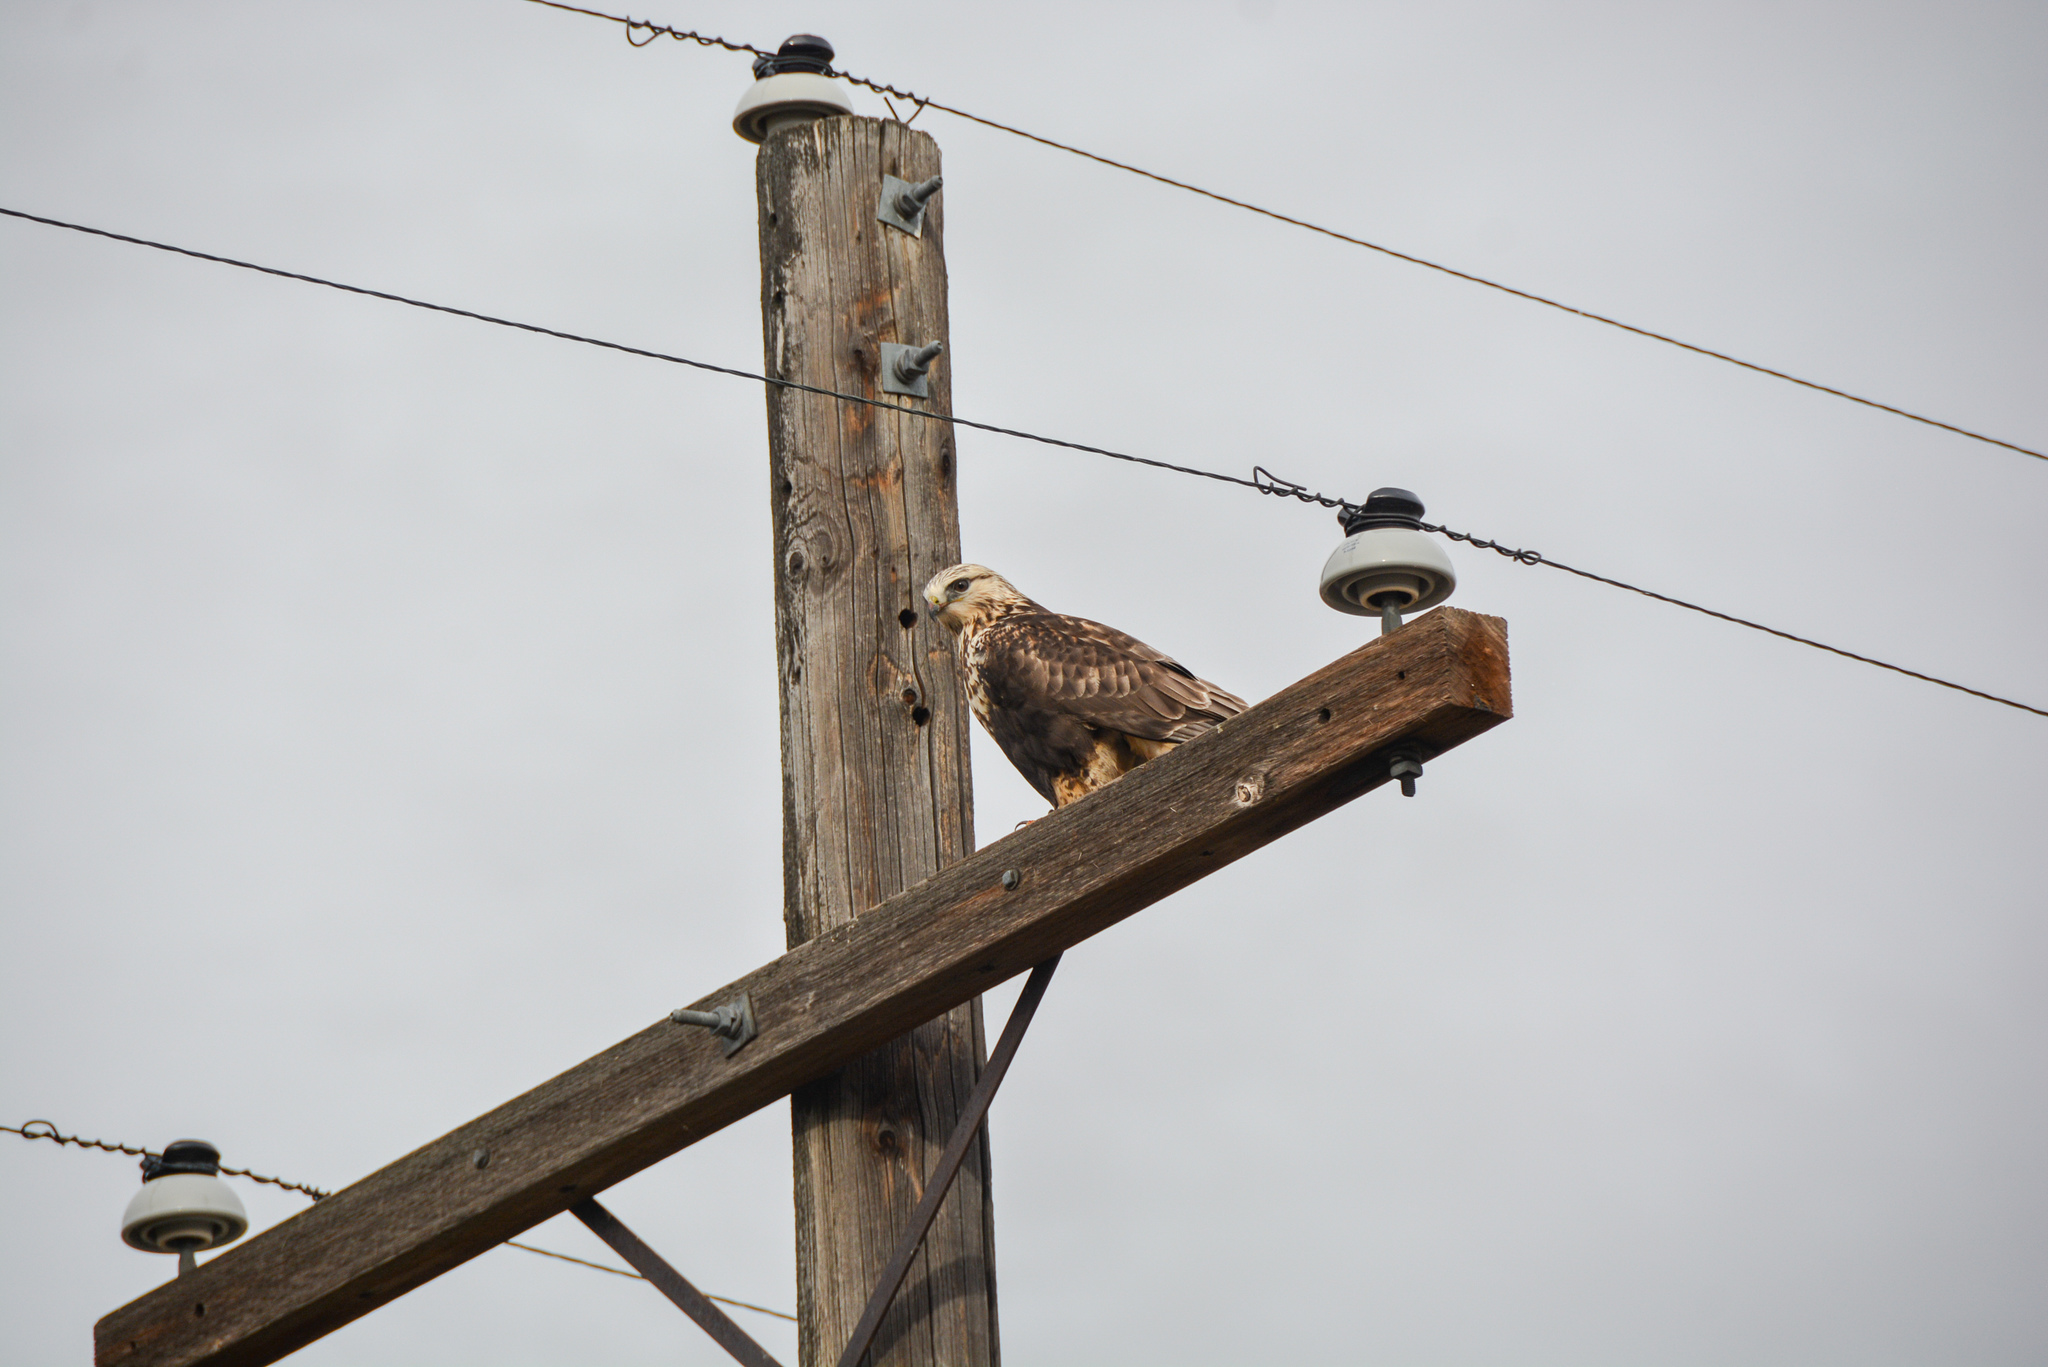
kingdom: Animalia
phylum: Chordata
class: Aves
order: Accipitriformes
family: Accipitridae
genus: Buteo
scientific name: Buteo lagopus
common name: Rough-legged buzzard
